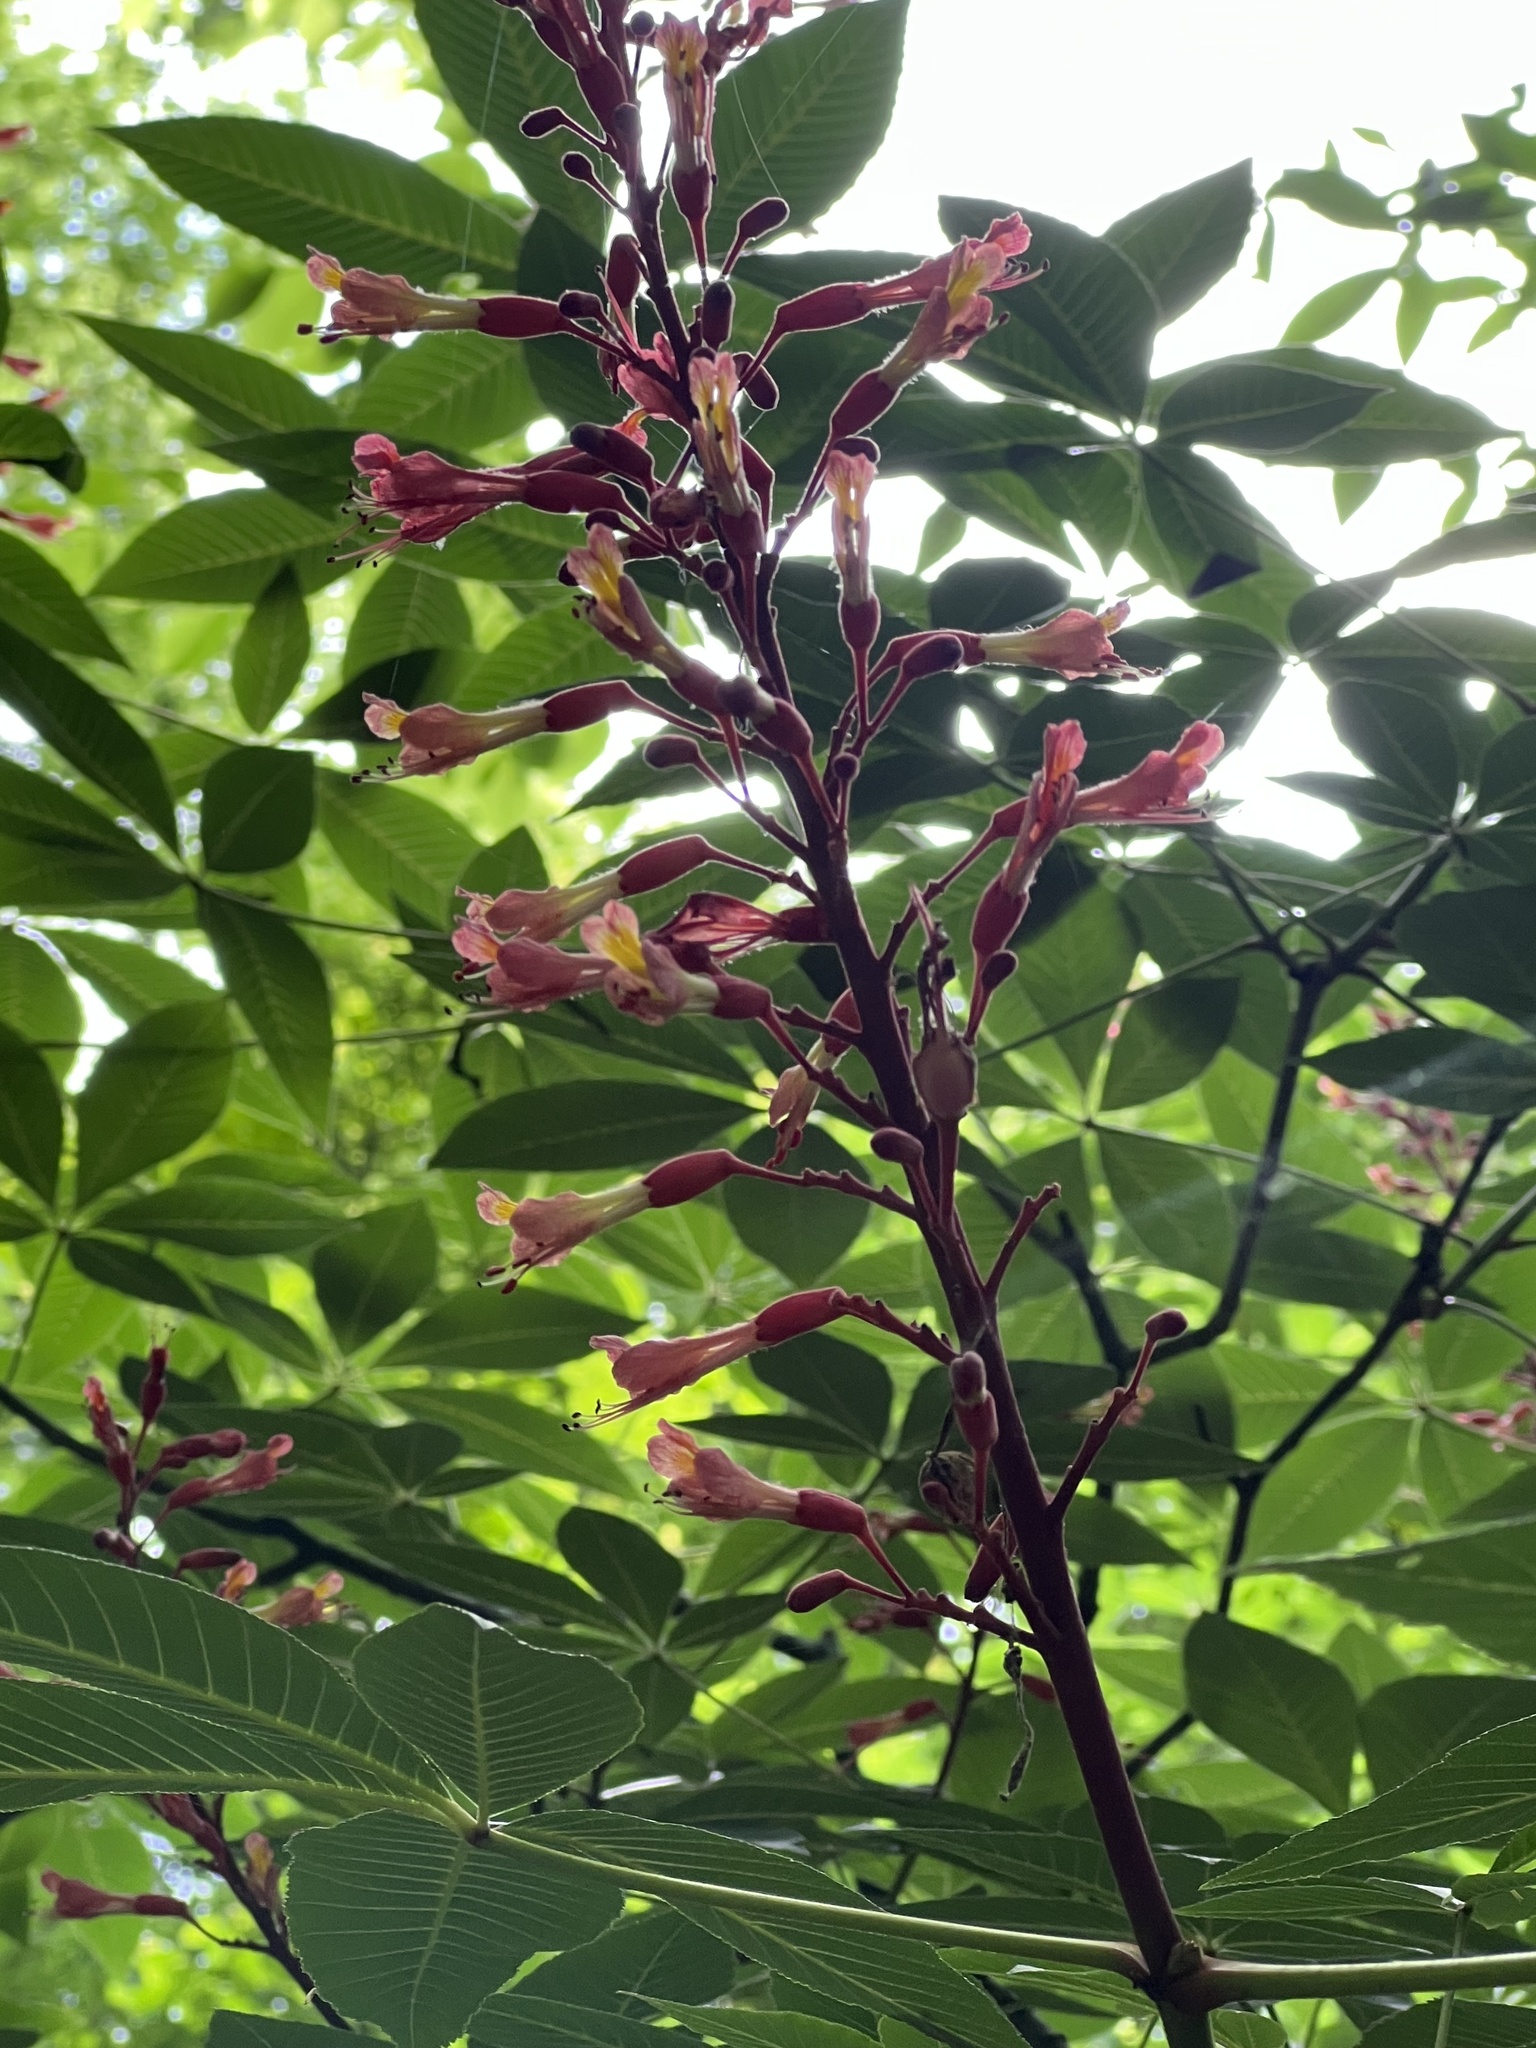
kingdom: Plantae
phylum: Tracheophyta
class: Magnoliopsida
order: Sapindales
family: Sapindaceae
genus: Aesculus
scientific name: Aesculus pavia
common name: Red buckeye
